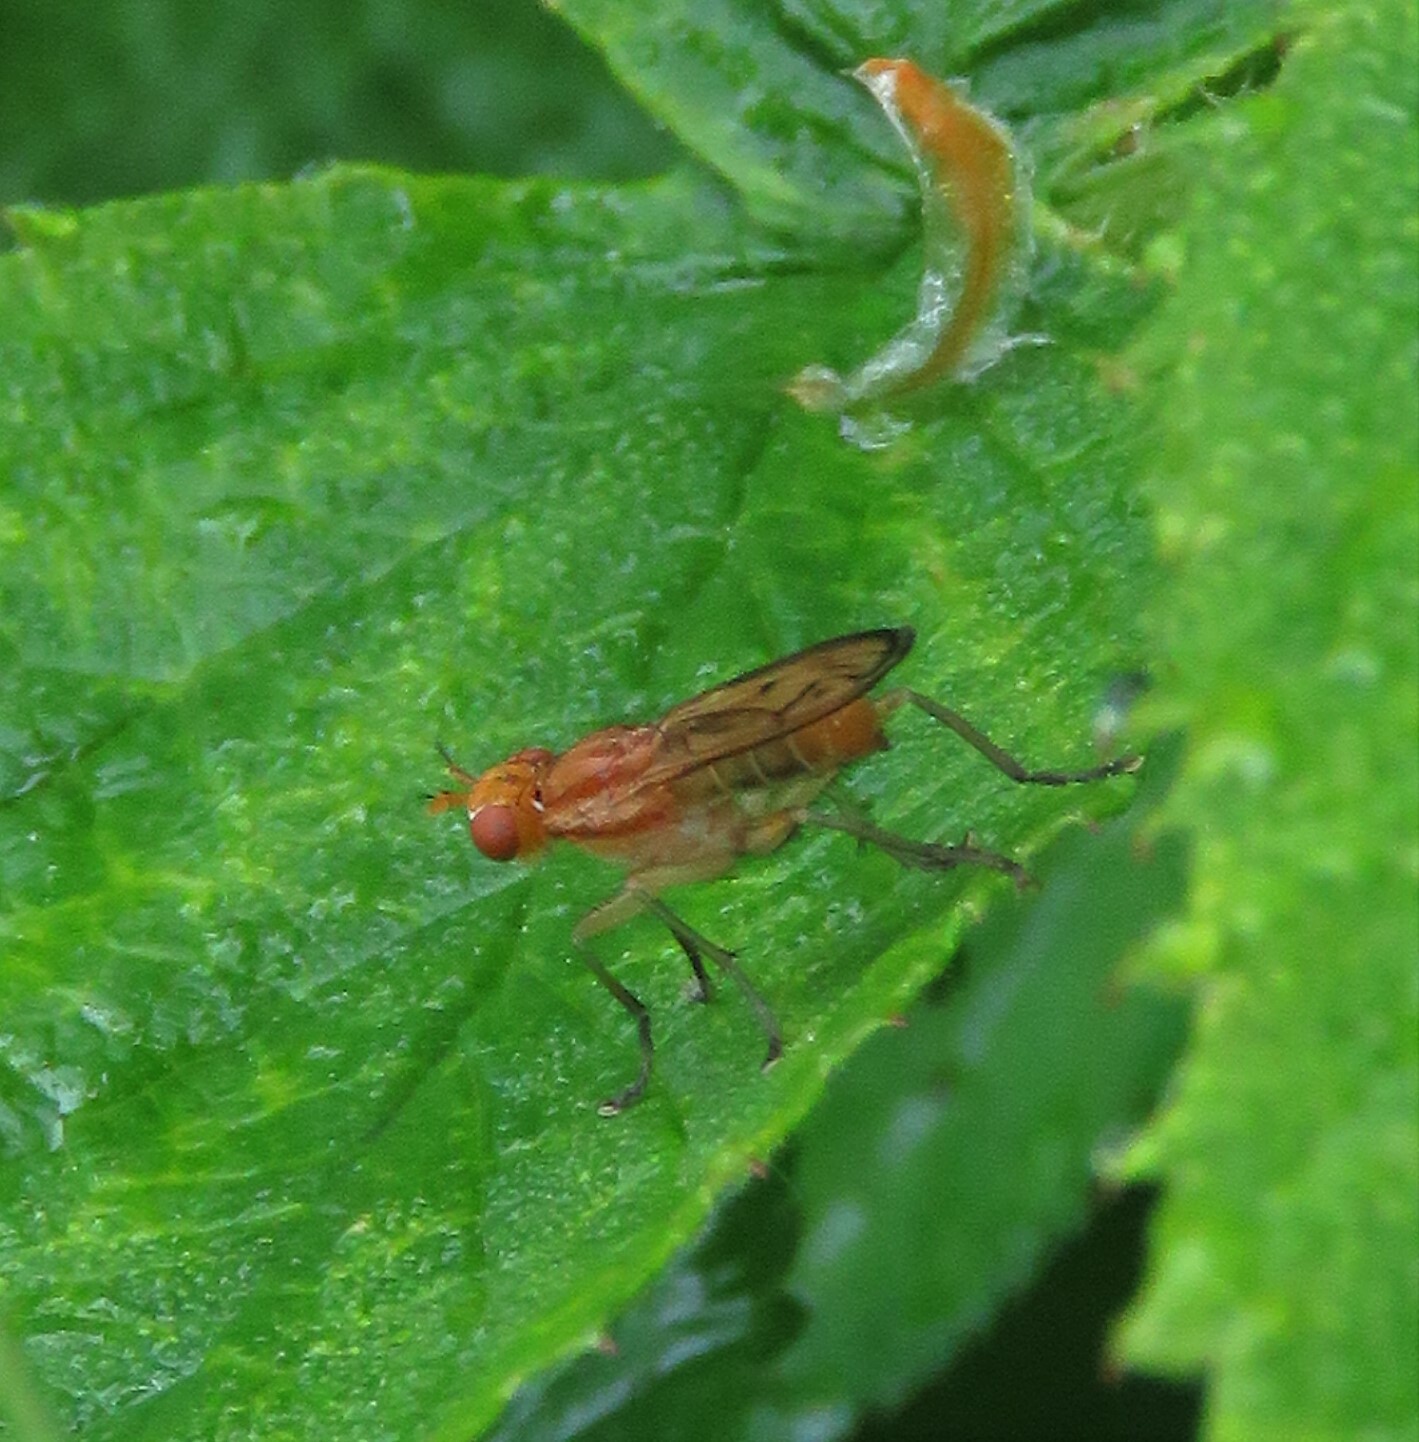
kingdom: Animalia
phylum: Arthropoda
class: Insecta
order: Diptera
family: Sciomyzidae
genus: Tetanocera
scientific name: Tetanocera plebeja
